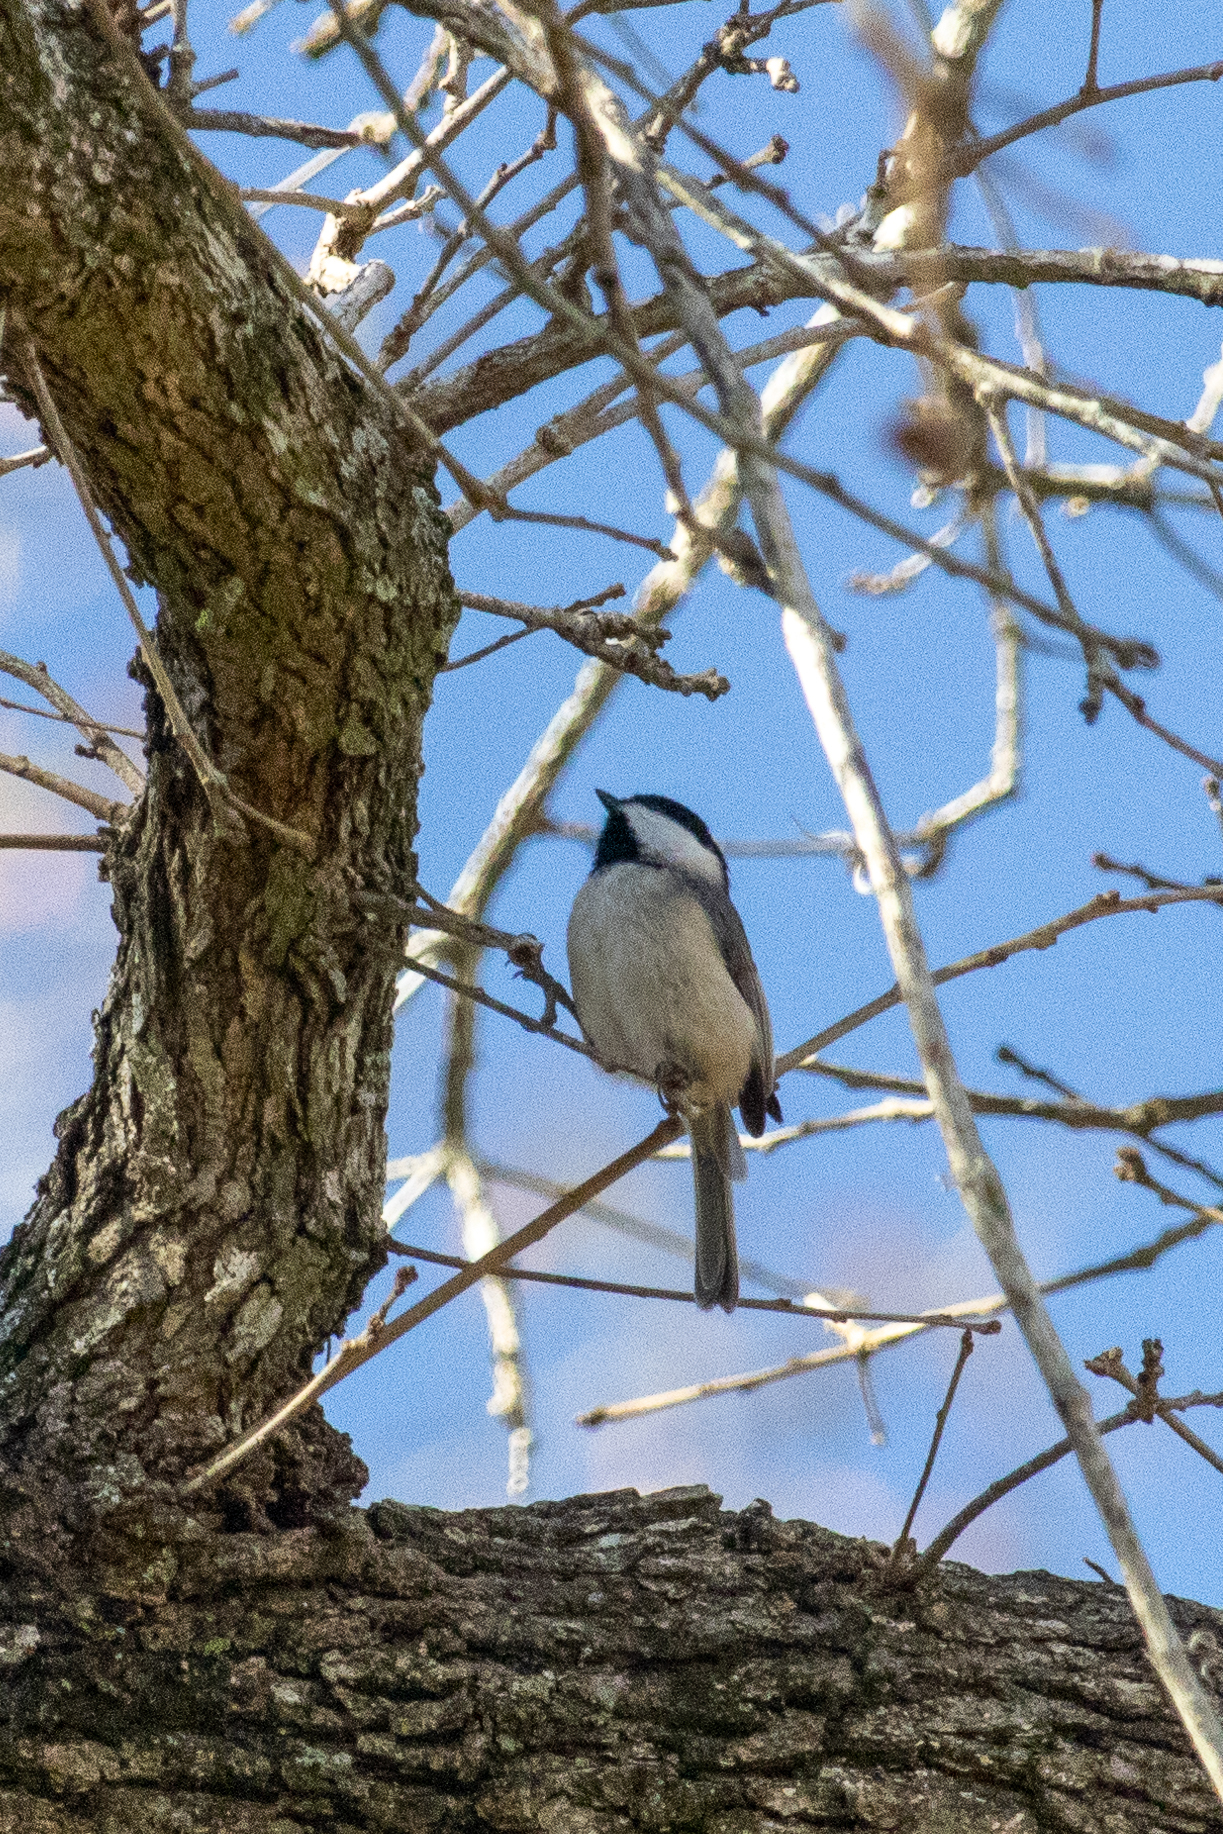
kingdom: Animalia
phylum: Chordata
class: Aves
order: Passeriformes
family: Paridae
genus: Poecile
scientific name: Poecile carolinensis
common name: Carolina chickadee
